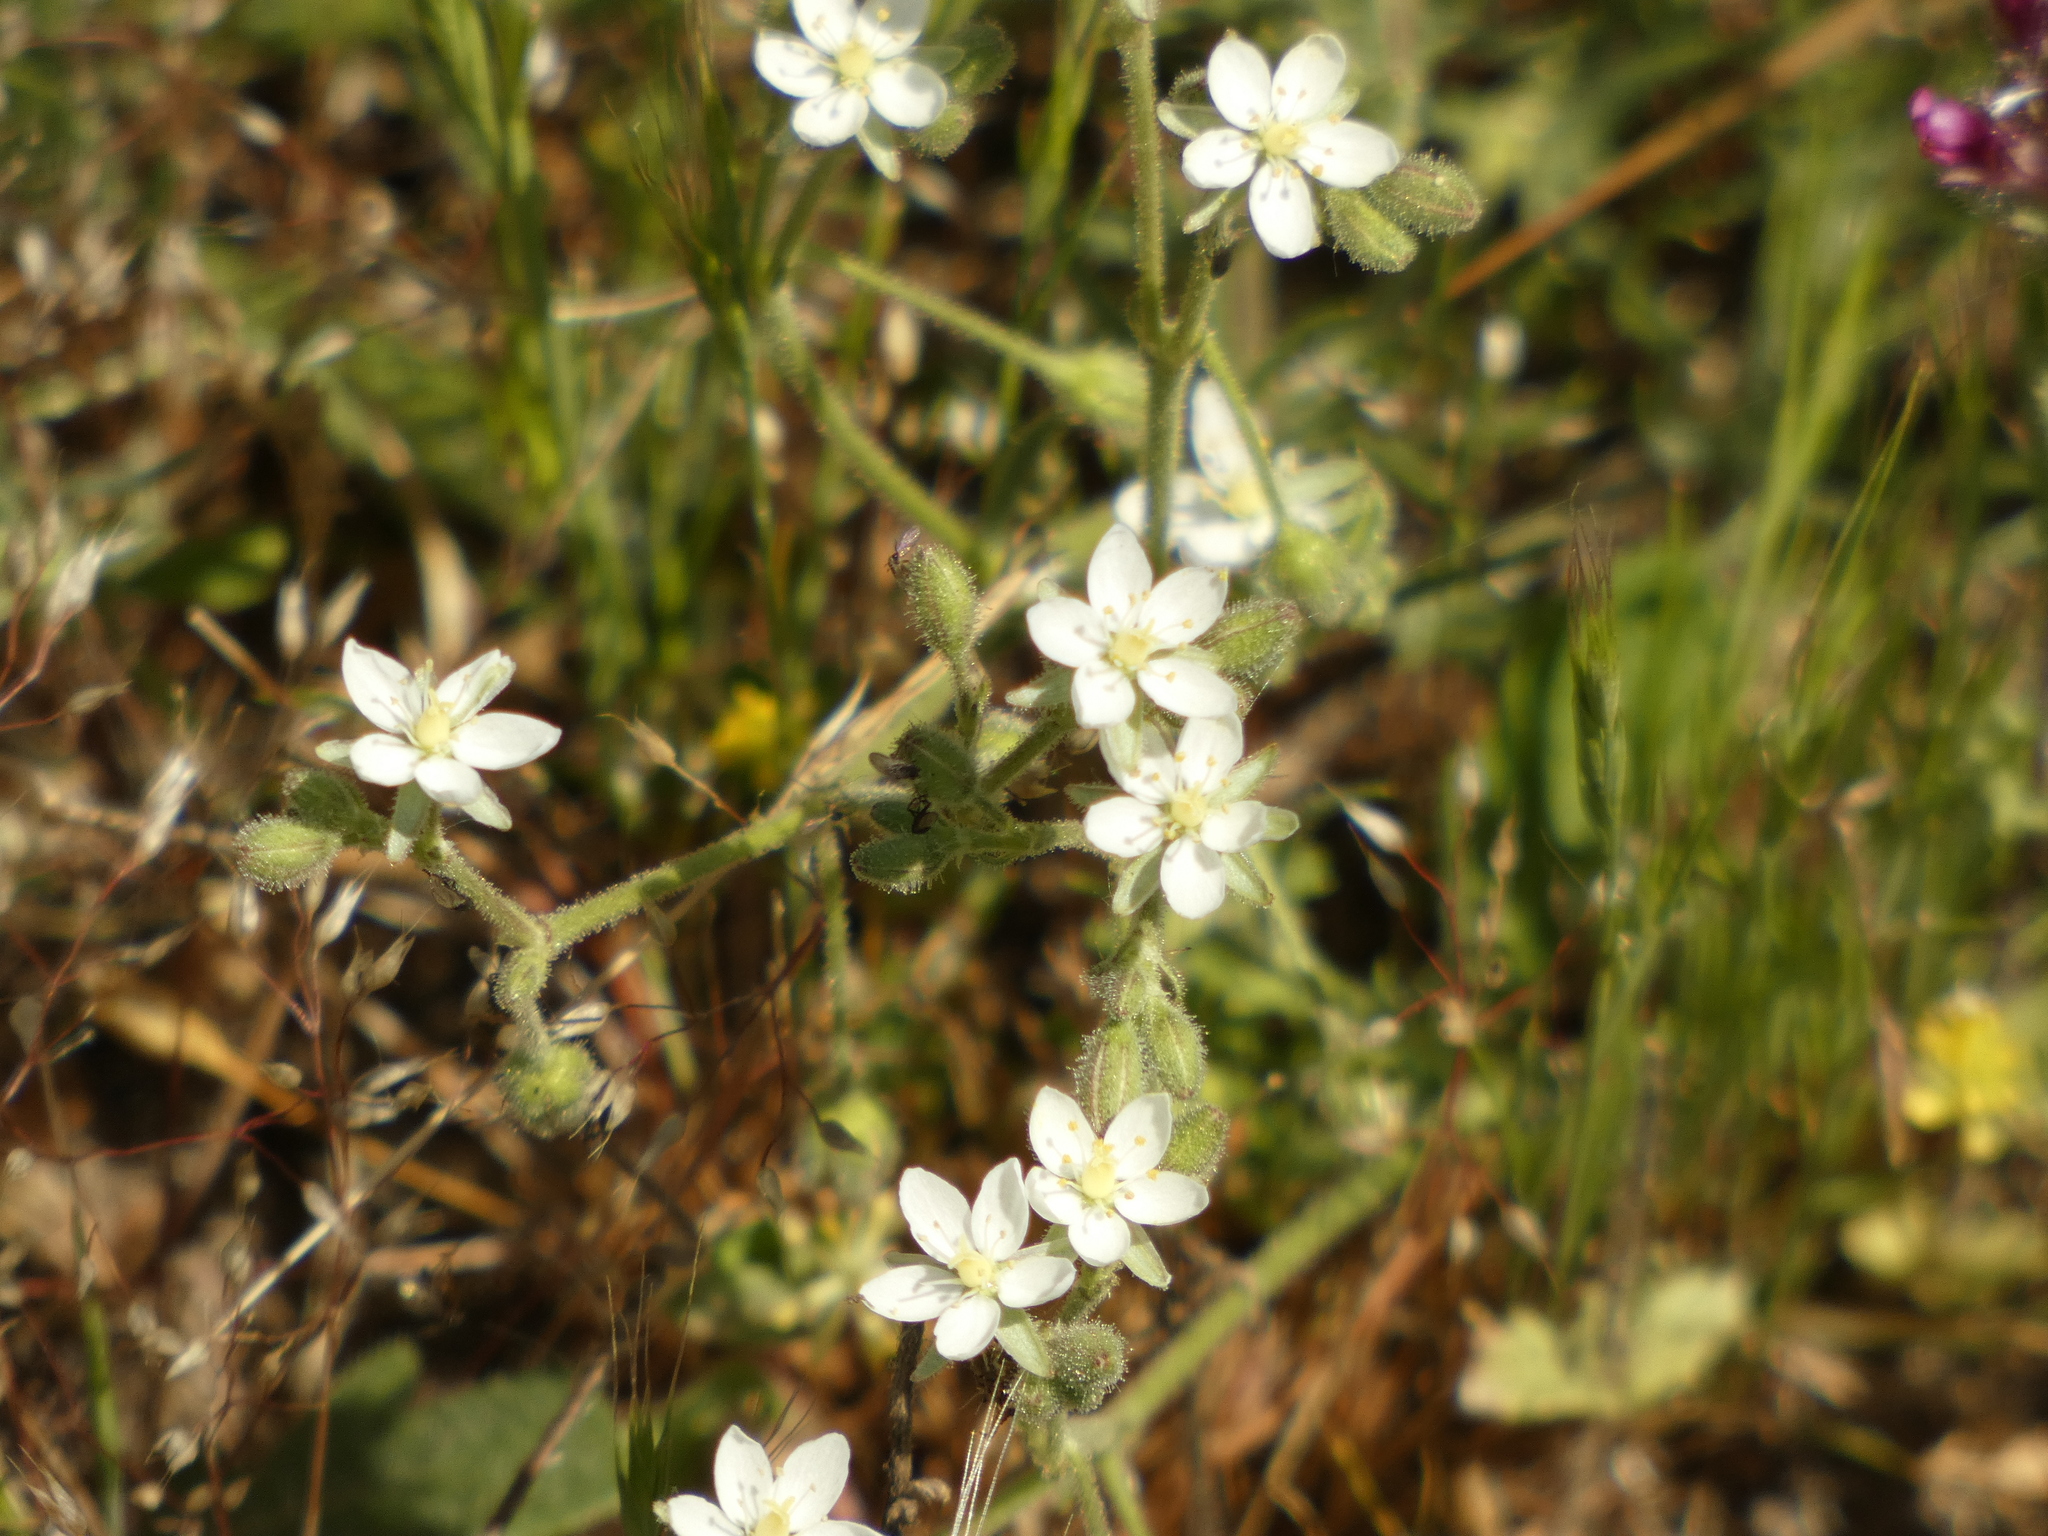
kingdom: Plantae
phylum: Tracheophyta
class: Magnoliopsida
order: Caryophyllales
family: Caryophyllaceae
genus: Spergularia
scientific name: Spergularia villosa
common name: Hairy sandspurry
